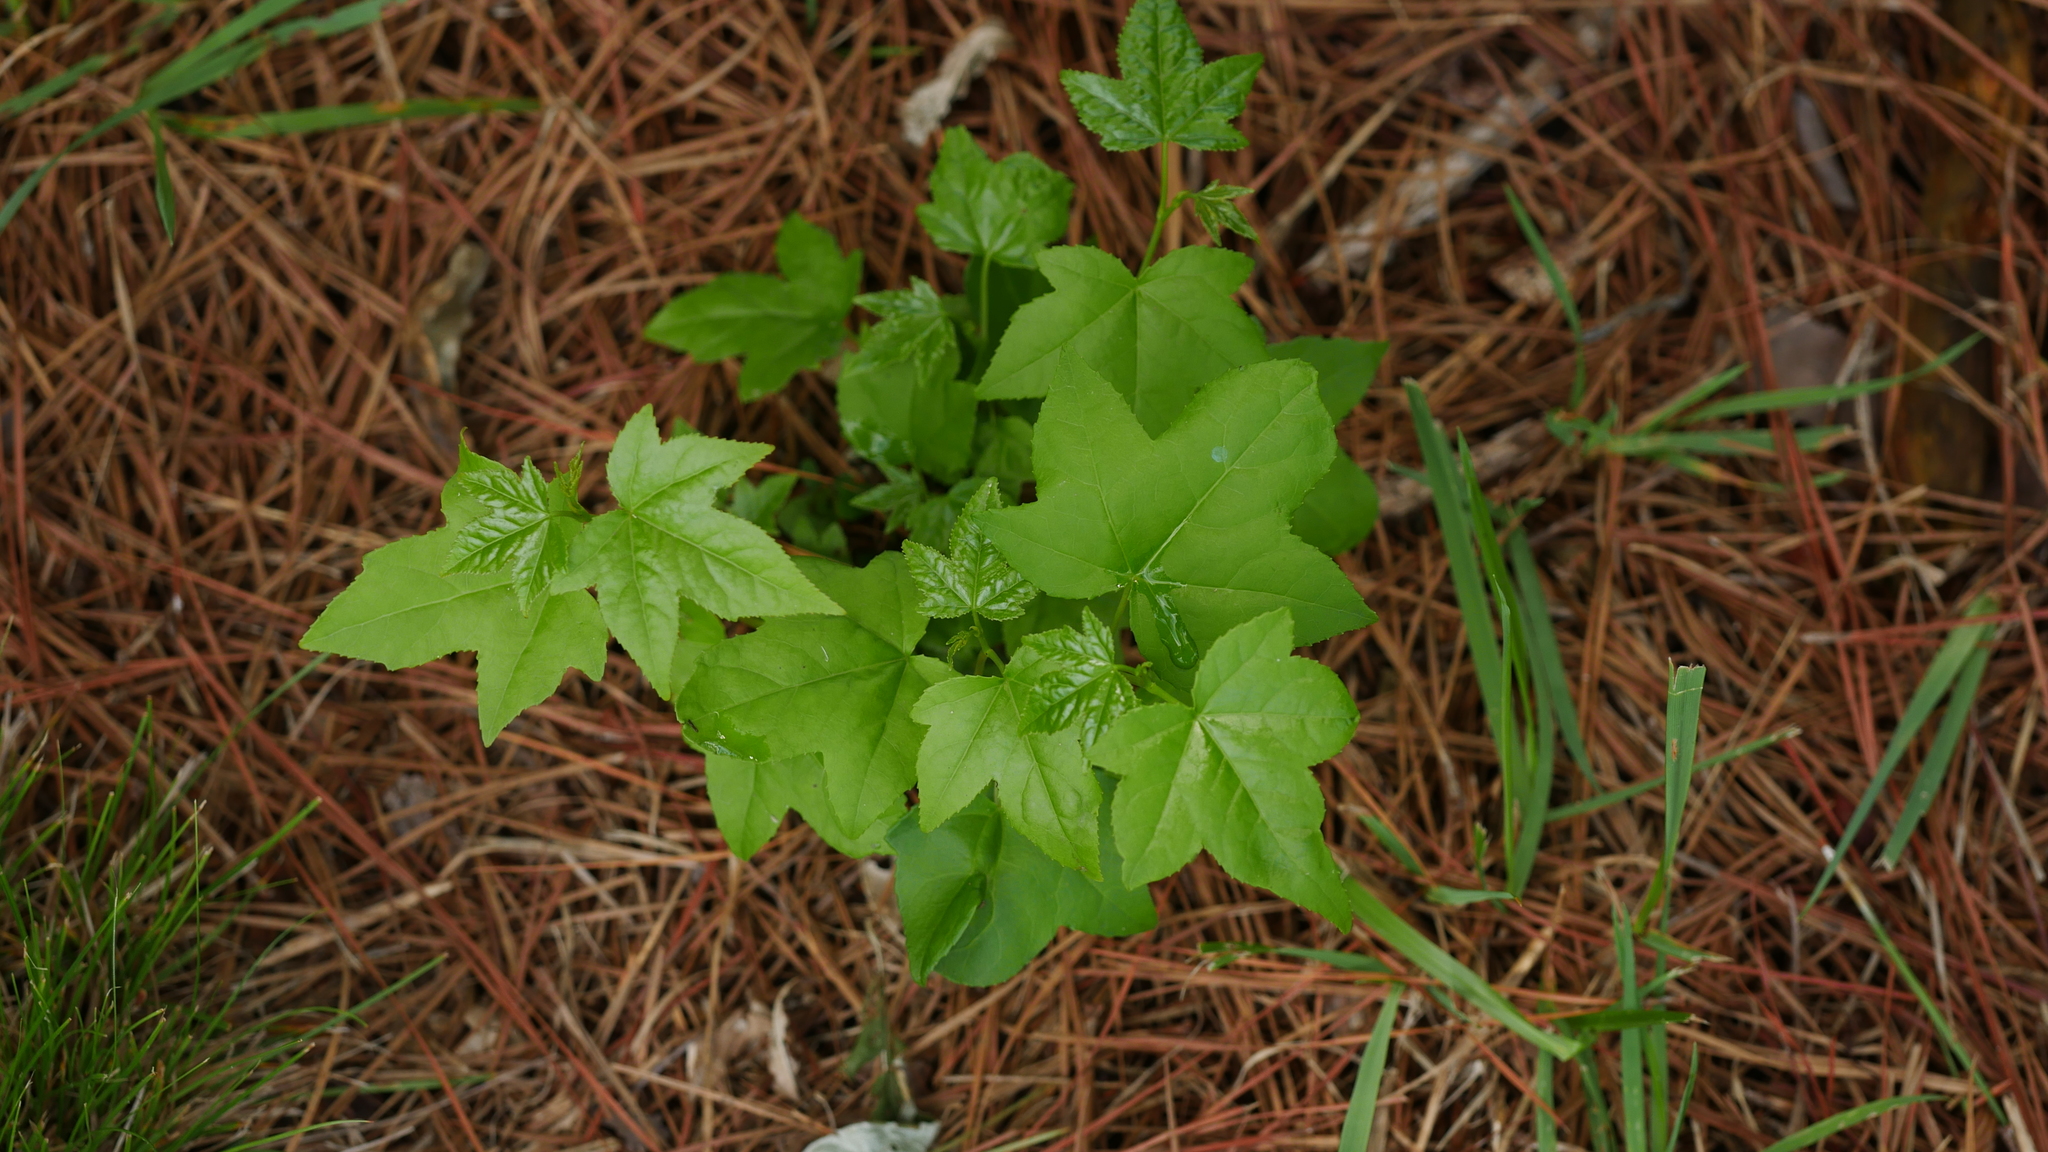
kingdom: Plantae
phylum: Tracheophyta
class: Magnoliopsida
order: Saxifragales
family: Altingiaceae
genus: Liquidambar
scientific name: Liquidambar styraciflua
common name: Sweet gum
